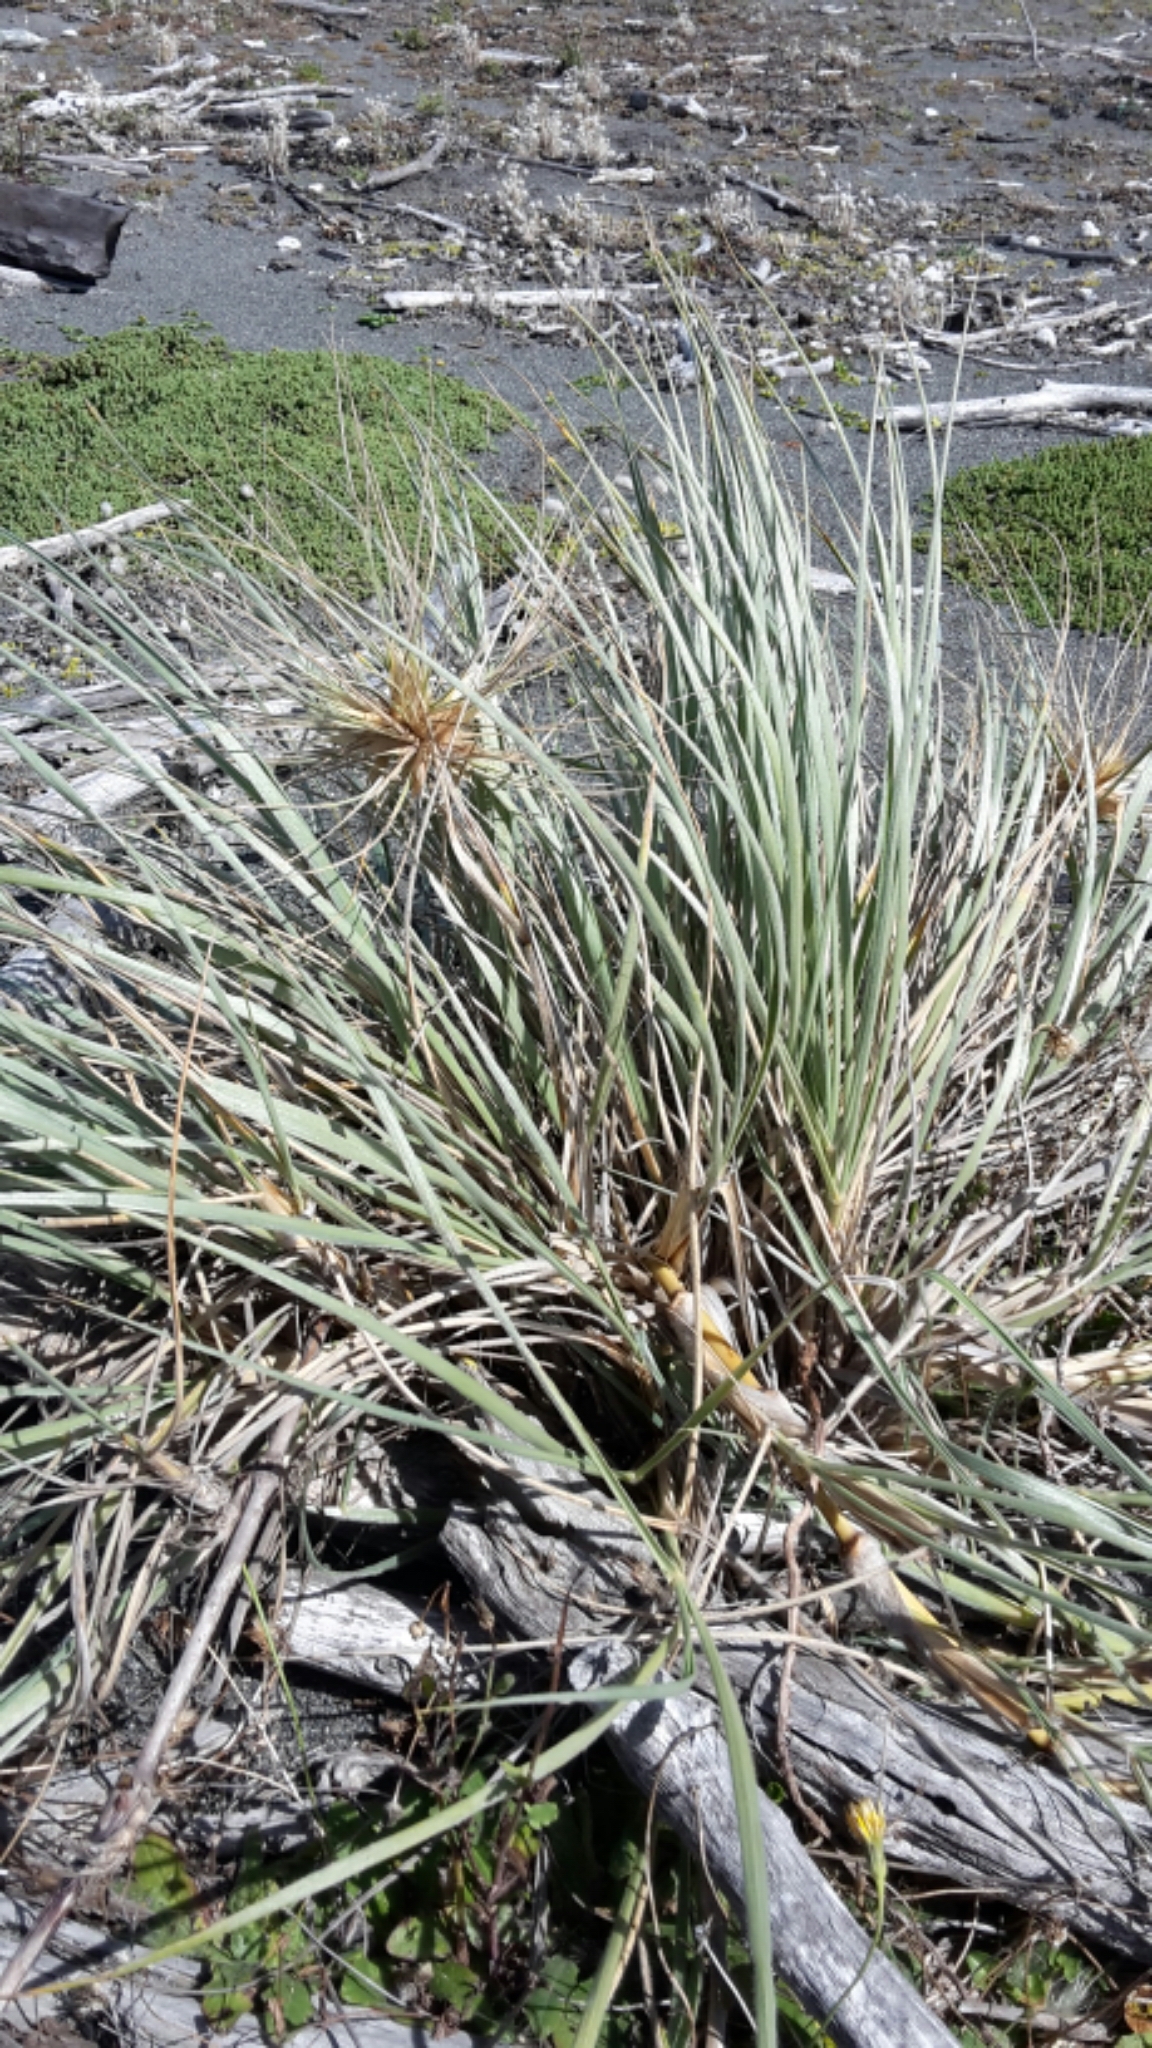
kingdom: Plantae
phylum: Tracheophyta
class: Liliopsida
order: Poales
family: Poaceae
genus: Spinifex
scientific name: Spinifex sericeus
